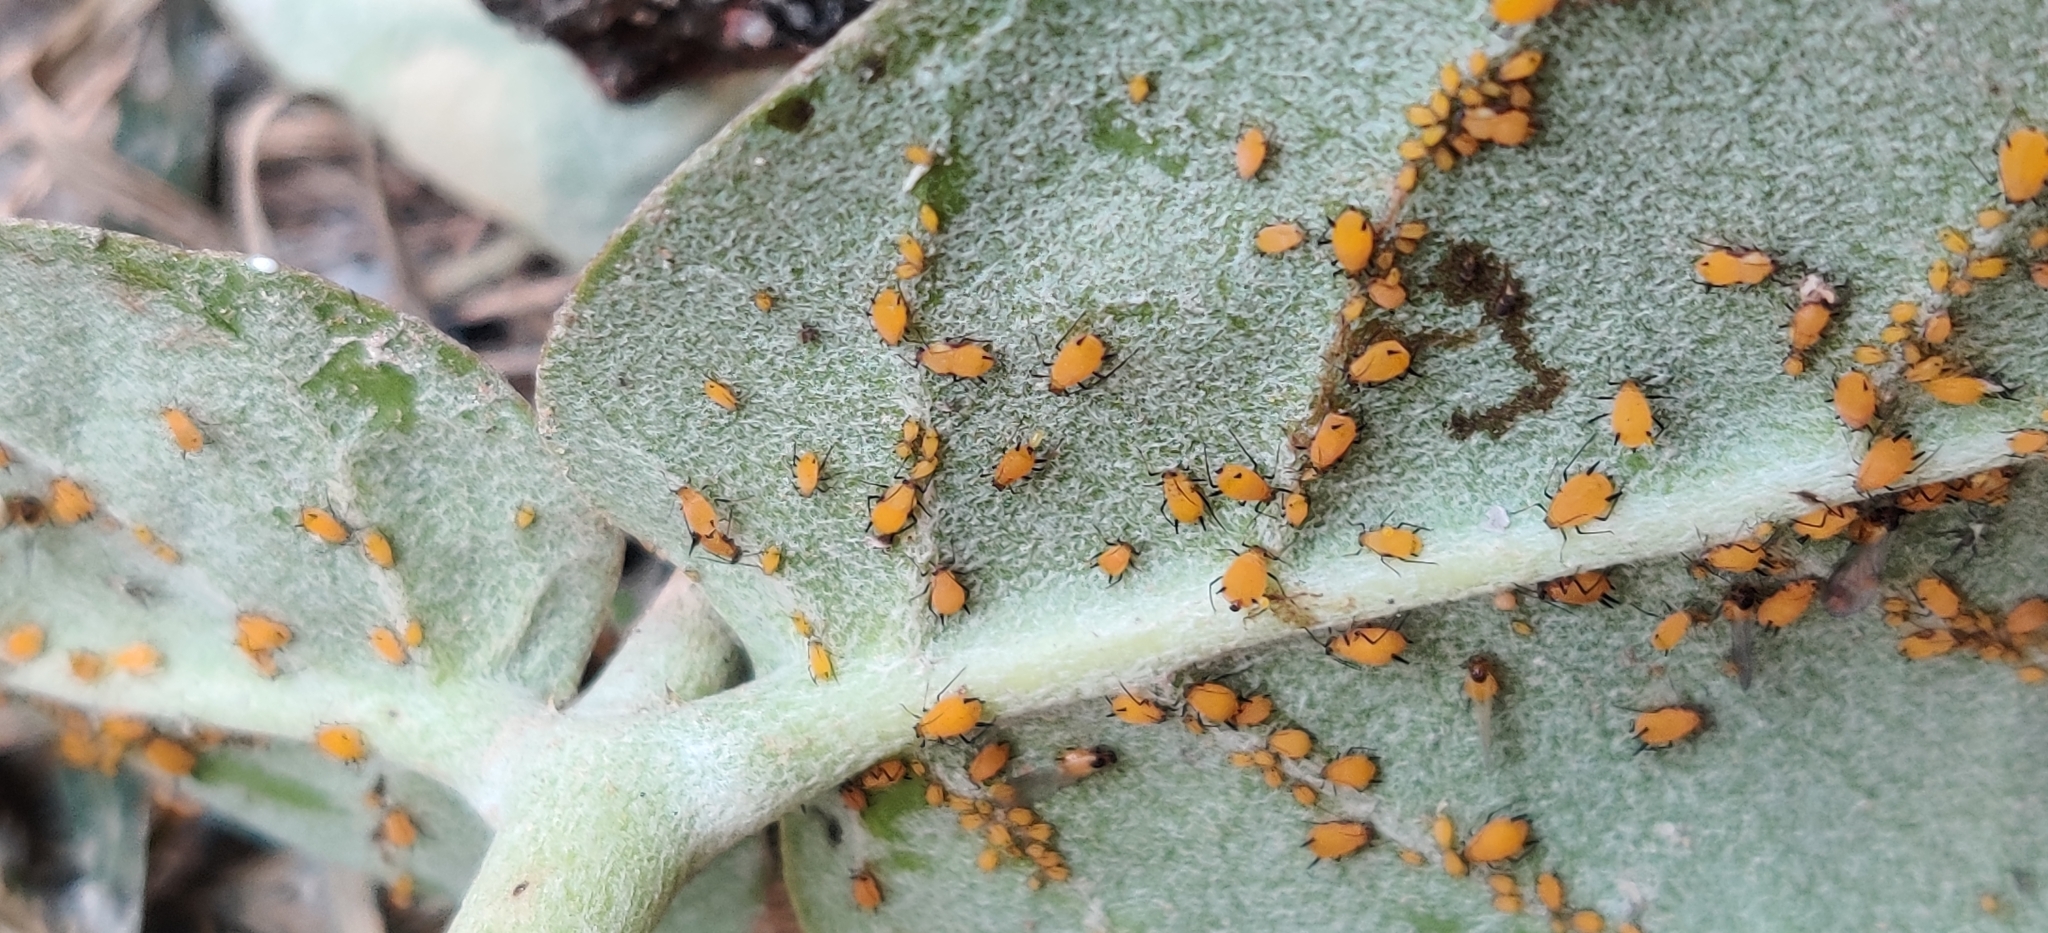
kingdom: Animalia
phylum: Arthropoda
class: Insecta
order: Hemiptera
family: Aphididae
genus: Aphis
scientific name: Aphis nerii
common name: Oleander aphid
